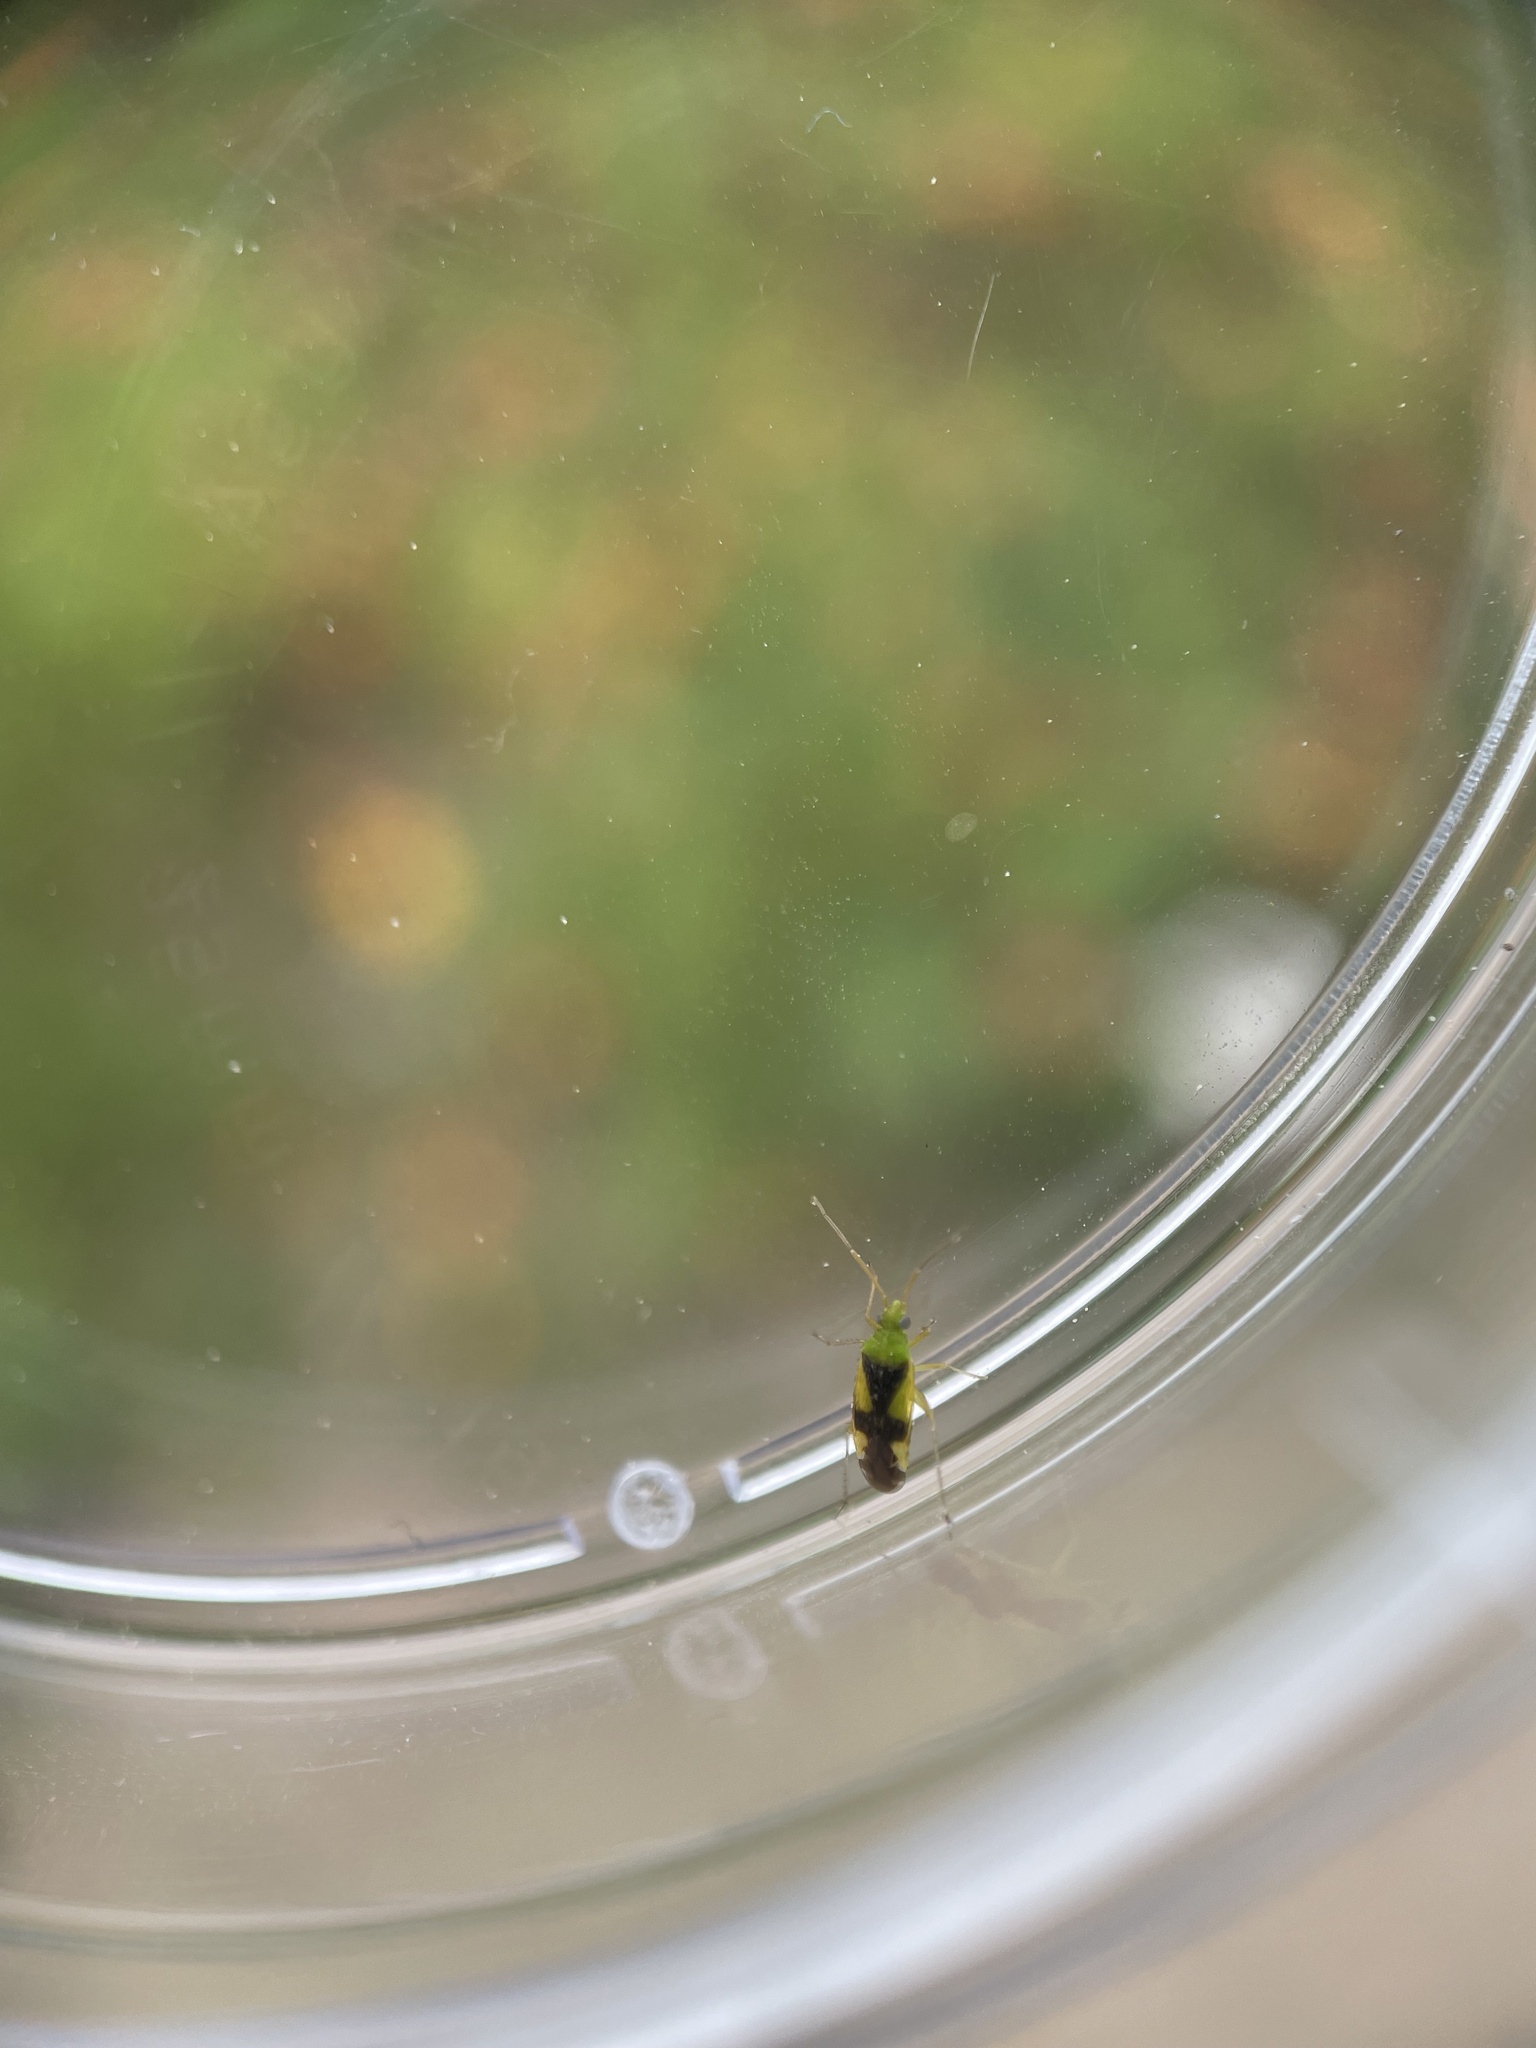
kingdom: Animalia
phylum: Arthropoda
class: Insecta
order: Hemiptera
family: Miridae
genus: Reuteroscopus
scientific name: Reuteroscopus ornatus
